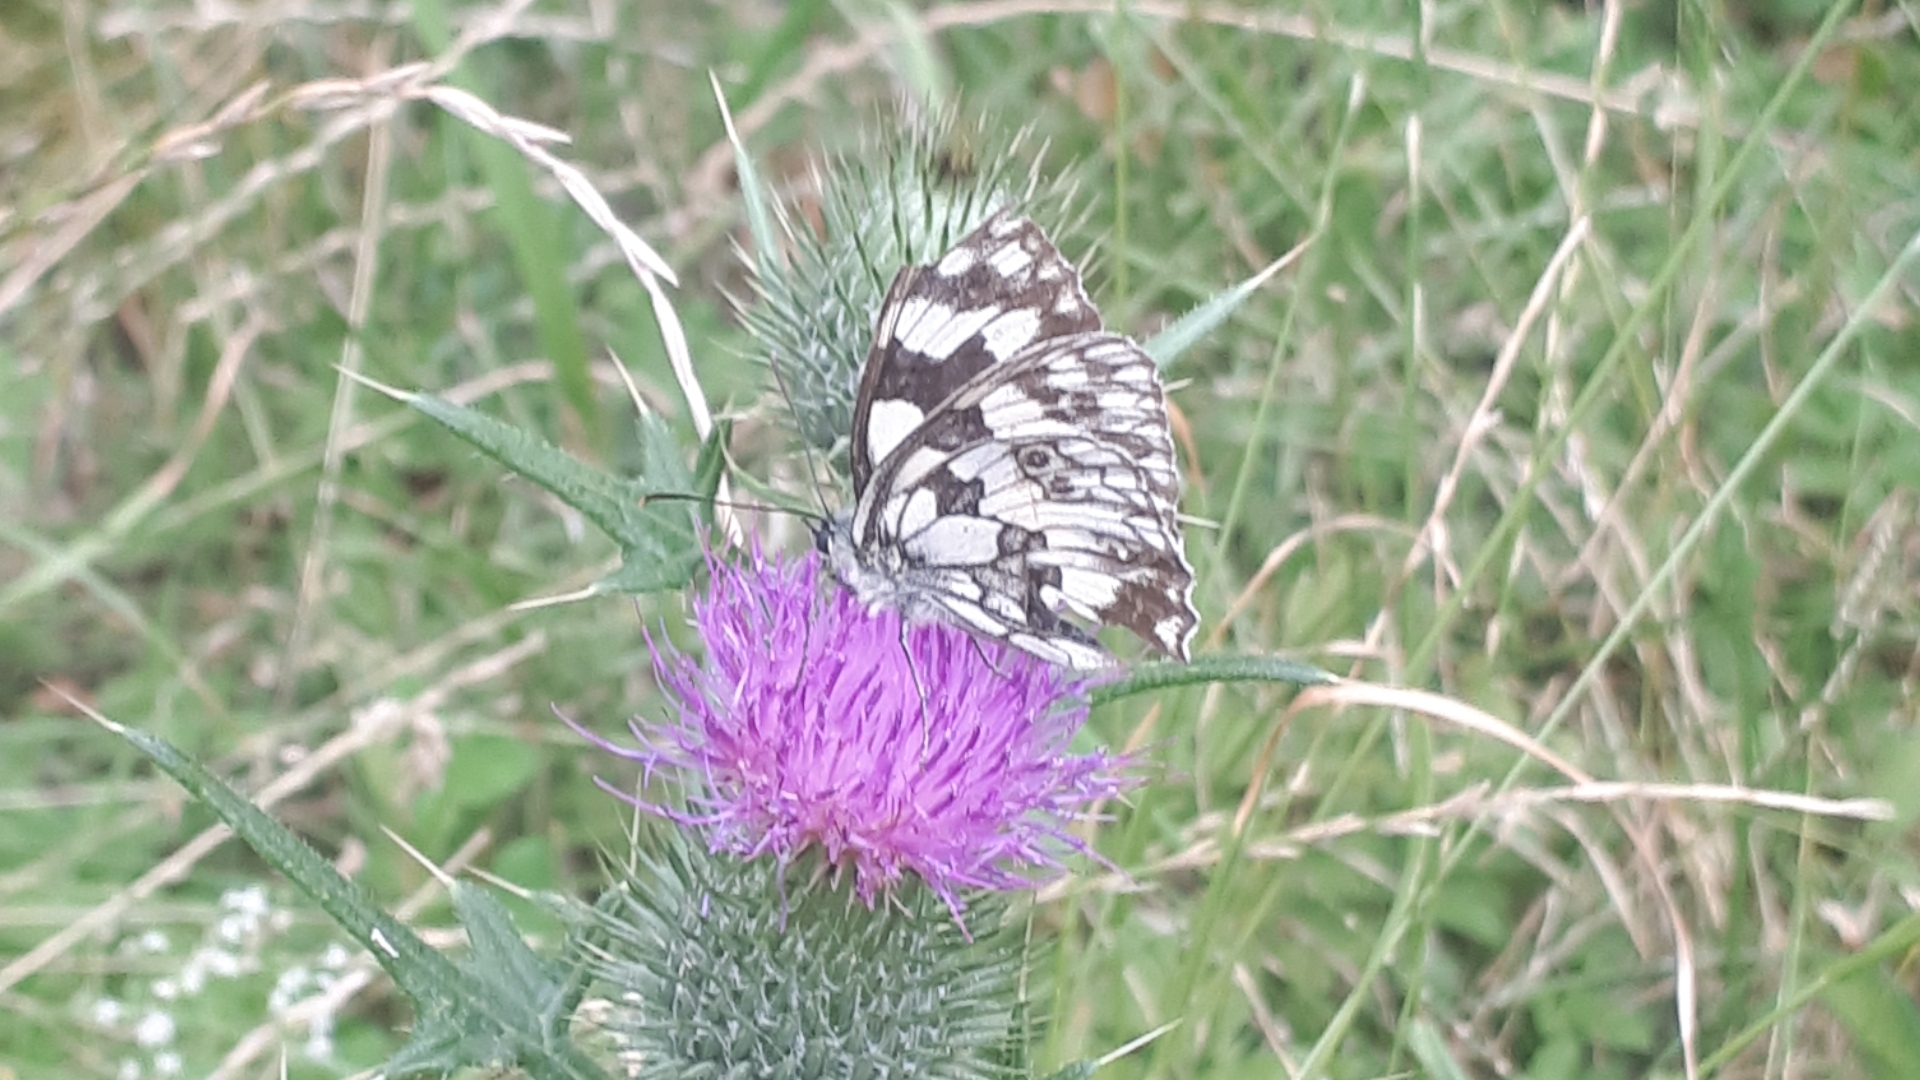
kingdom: Animalia
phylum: Arthropoda
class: Insecta
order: Lepidoptera
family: Nymphalidae
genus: Melanargia
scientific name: Melanargia galathea
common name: Marbled white
